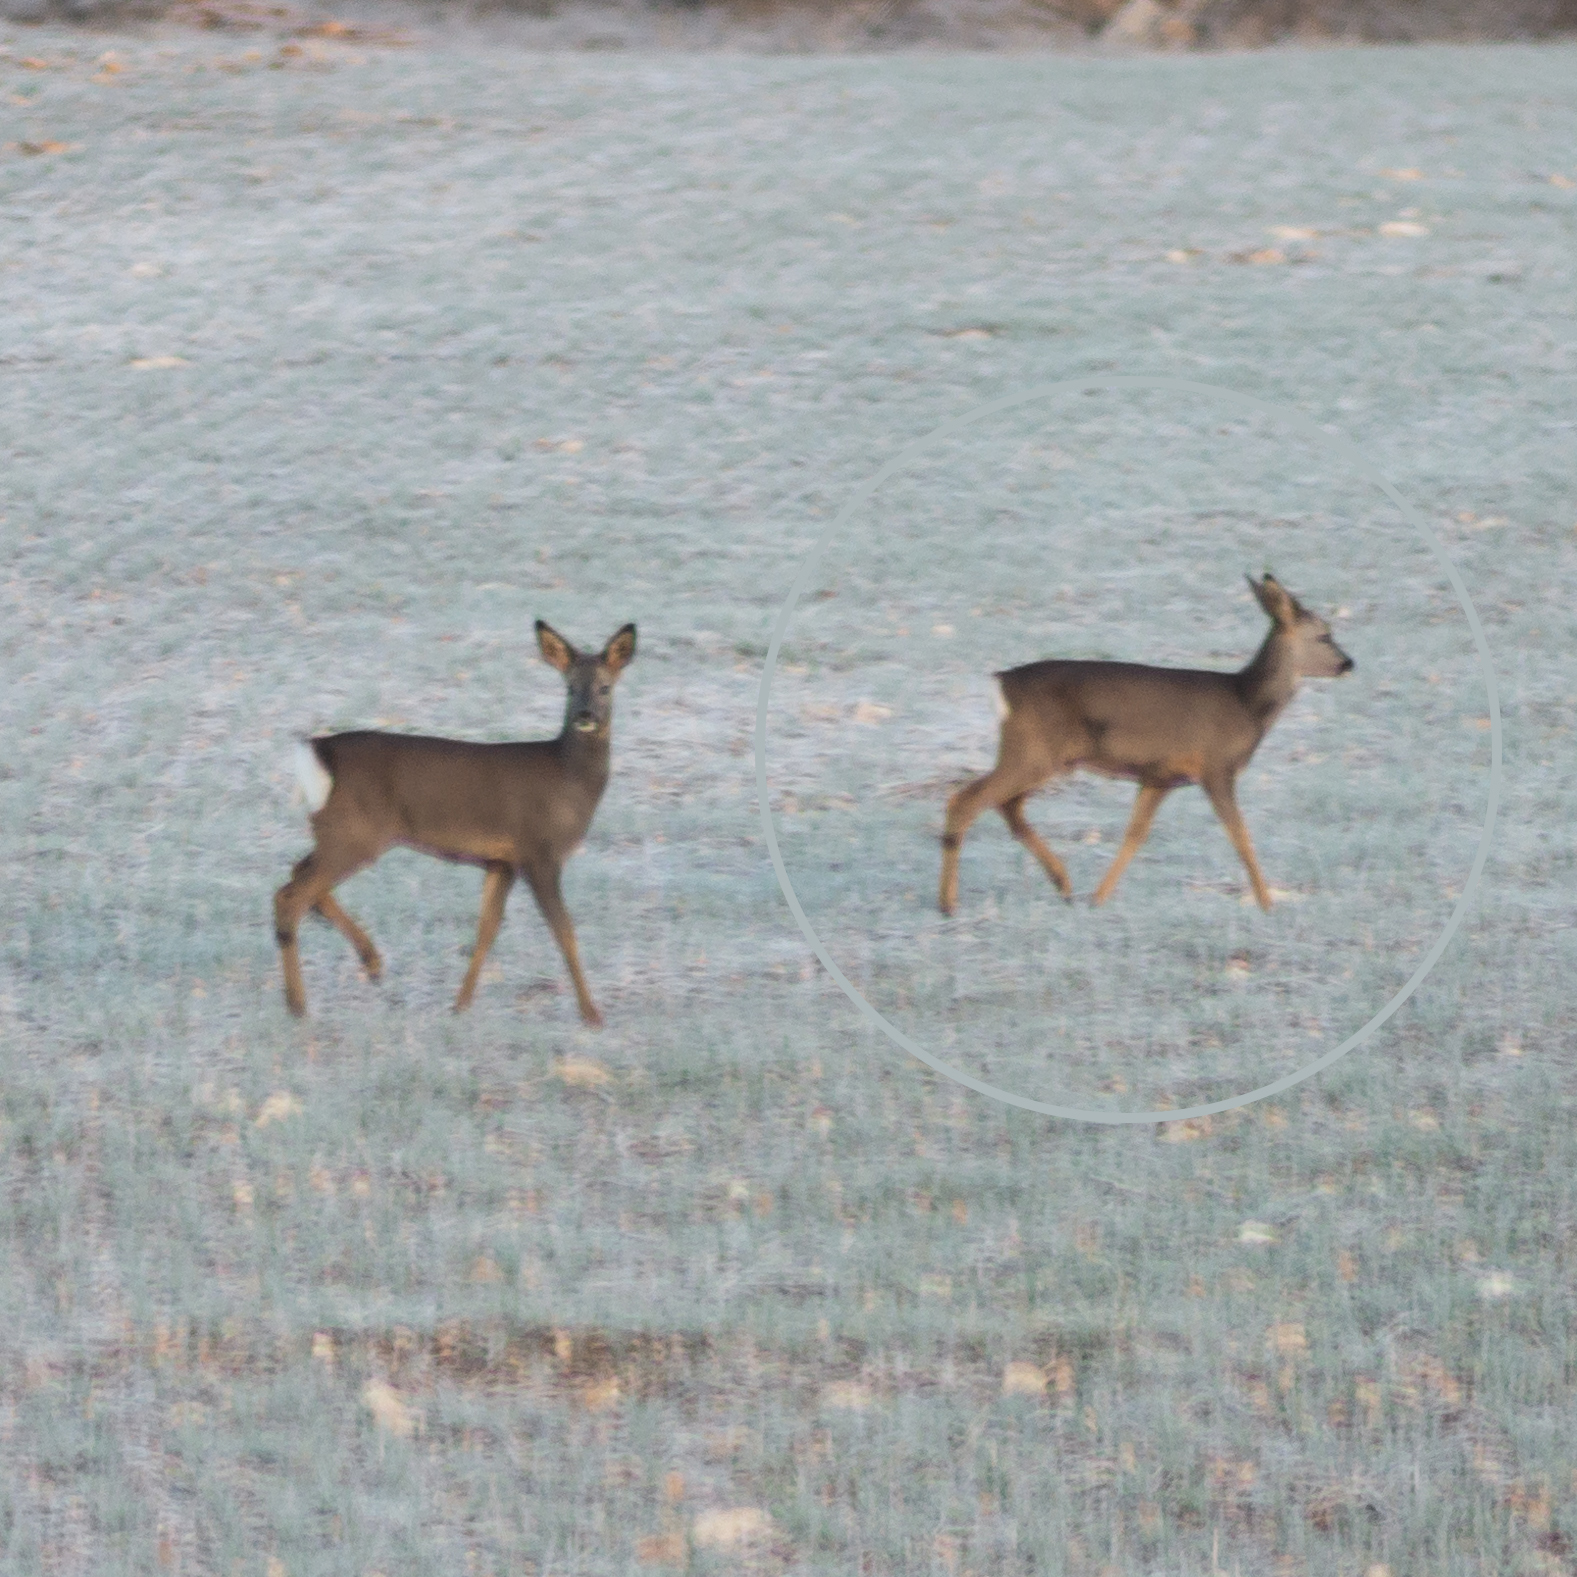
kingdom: Animalia
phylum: Chordata
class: Mammalia
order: Artiodactyla
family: Cervidae
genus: Capreolus
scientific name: Capreolus capreolus
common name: Western roe deer
